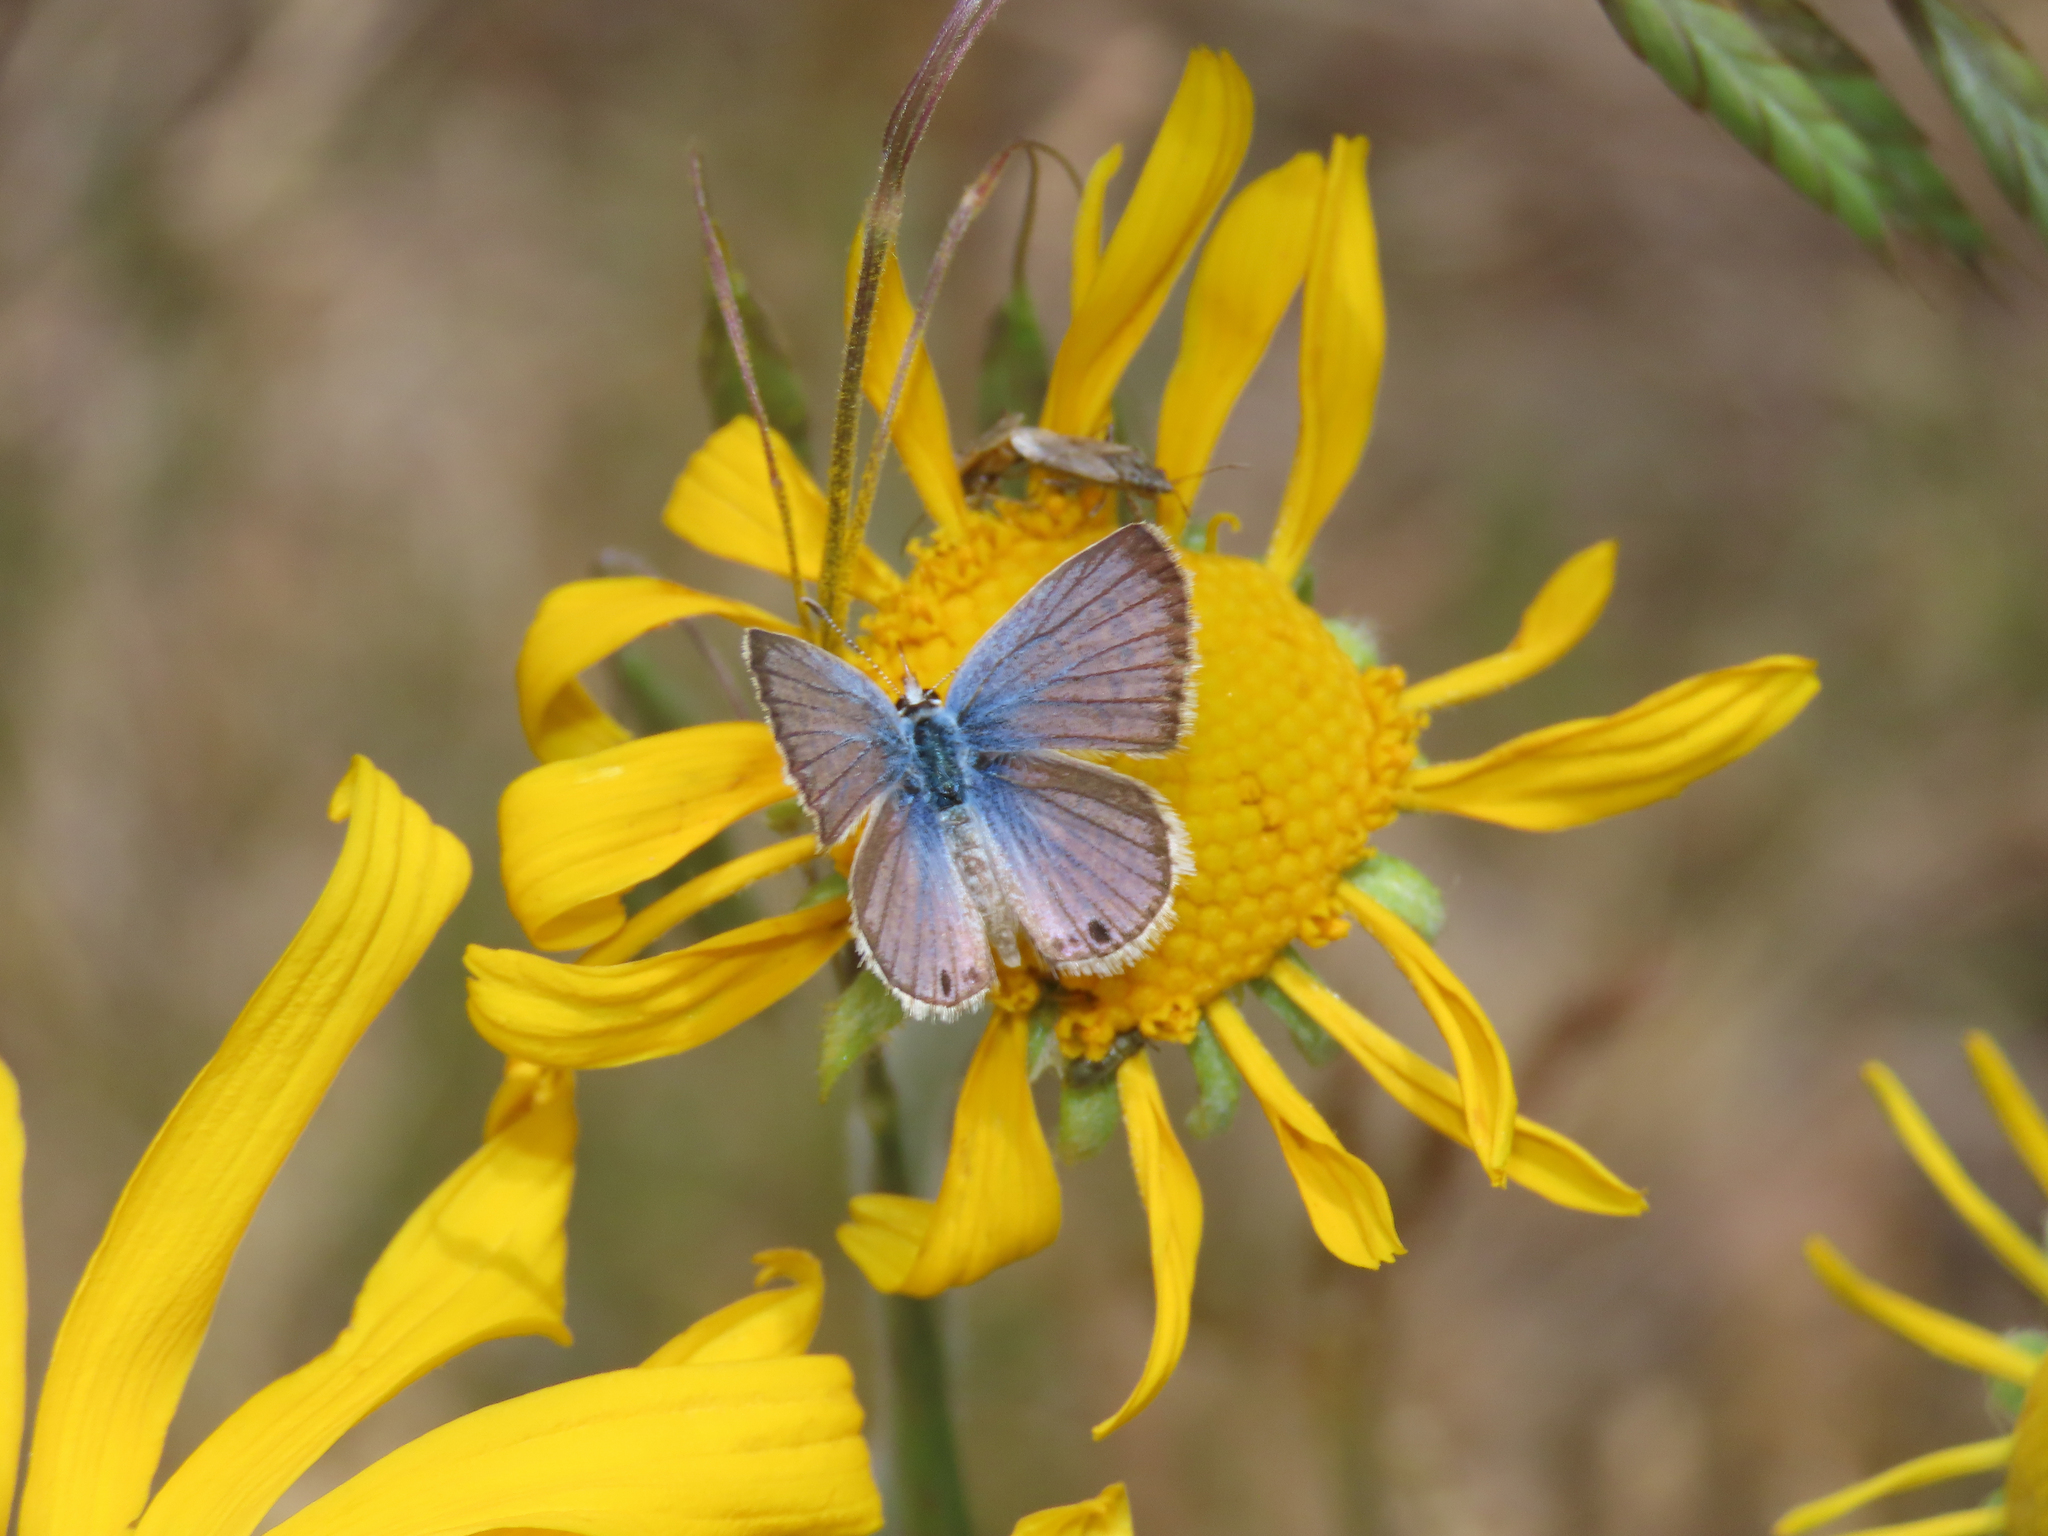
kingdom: Animalia
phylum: Arthropoda
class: Insecta
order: Lepidoptera
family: Lycaenidae
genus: Leptotes
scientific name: Leptotes marina
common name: Marine blue
